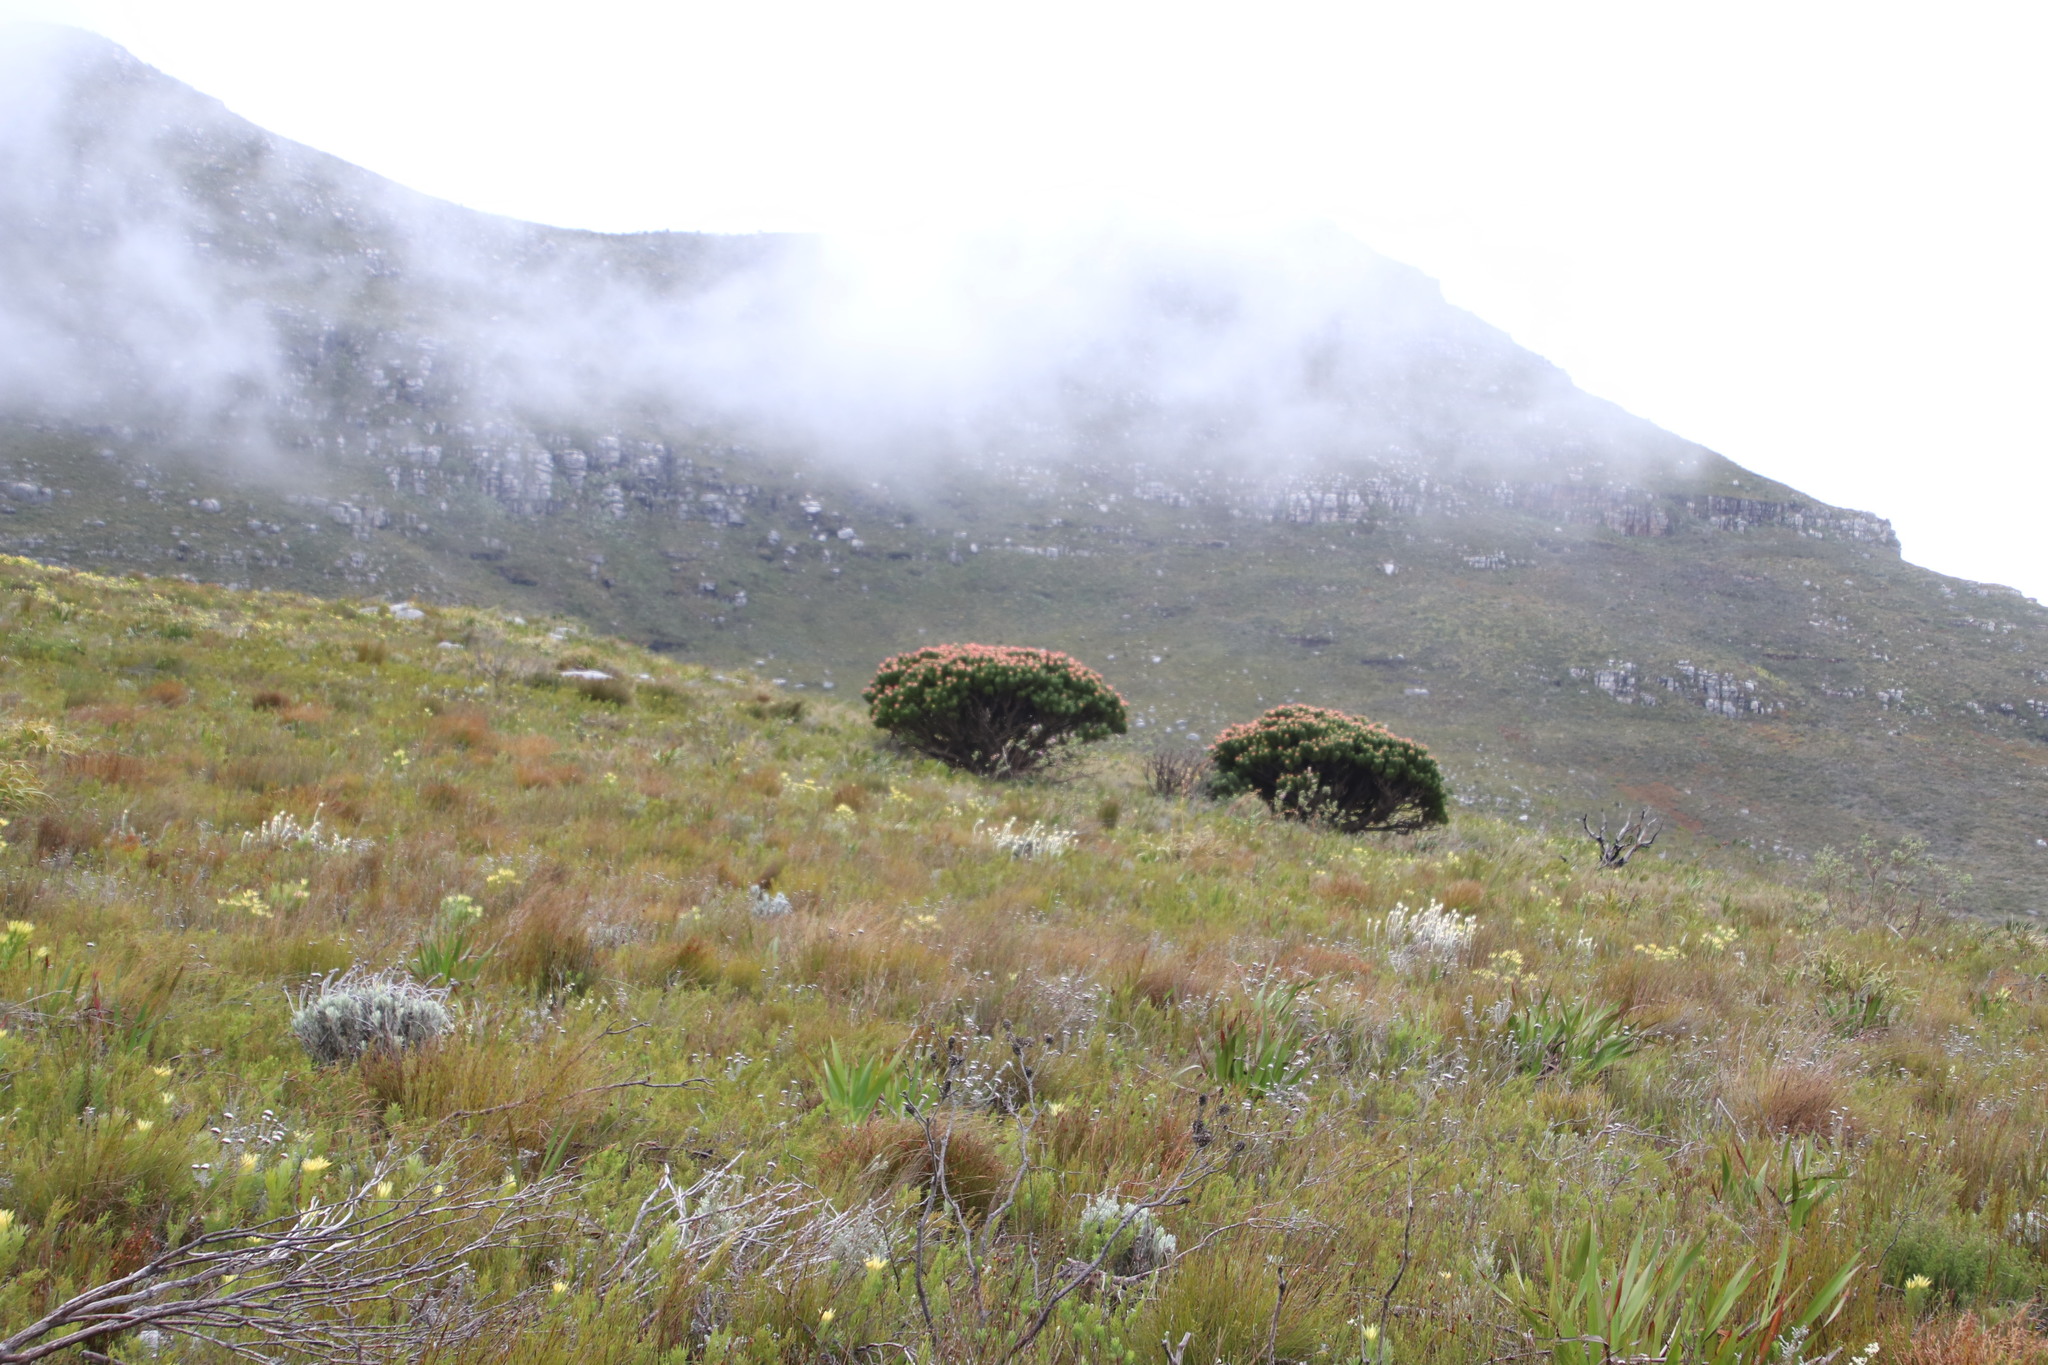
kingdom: Plantae
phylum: Tracheophyta
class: Magnoliopsida
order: Proteales
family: Proteaceae
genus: Mimetes
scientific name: Mimetes fimbriifolius
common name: Fringed bottlebrush
